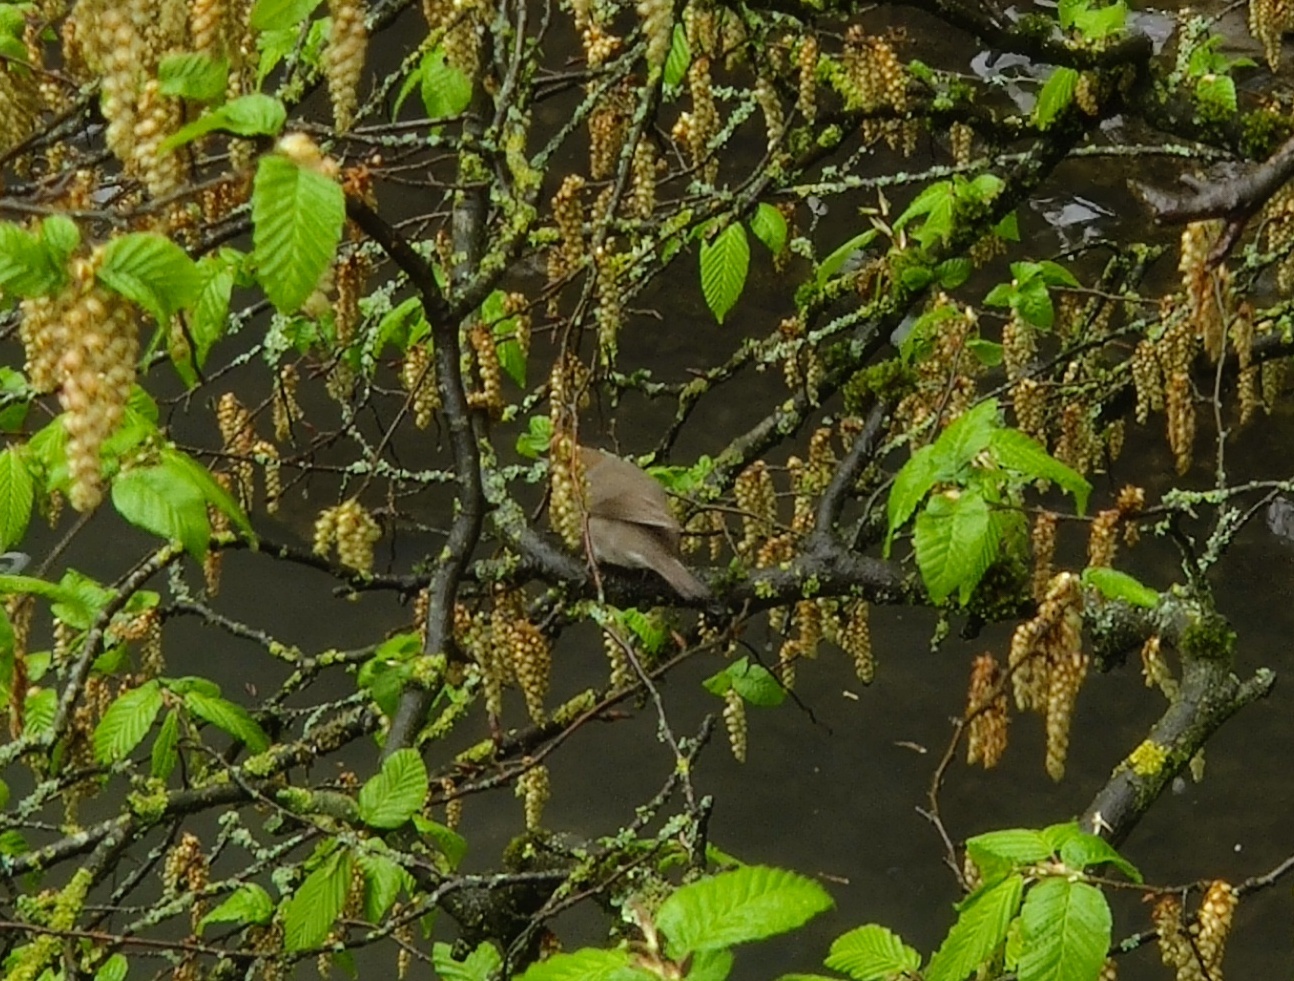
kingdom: Animalia
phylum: Chordata
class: Aves
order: Passeriformes
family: Sylviidae
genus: Sylvia
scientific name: Sylvia atricapilla
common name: Eurasian blackcap
